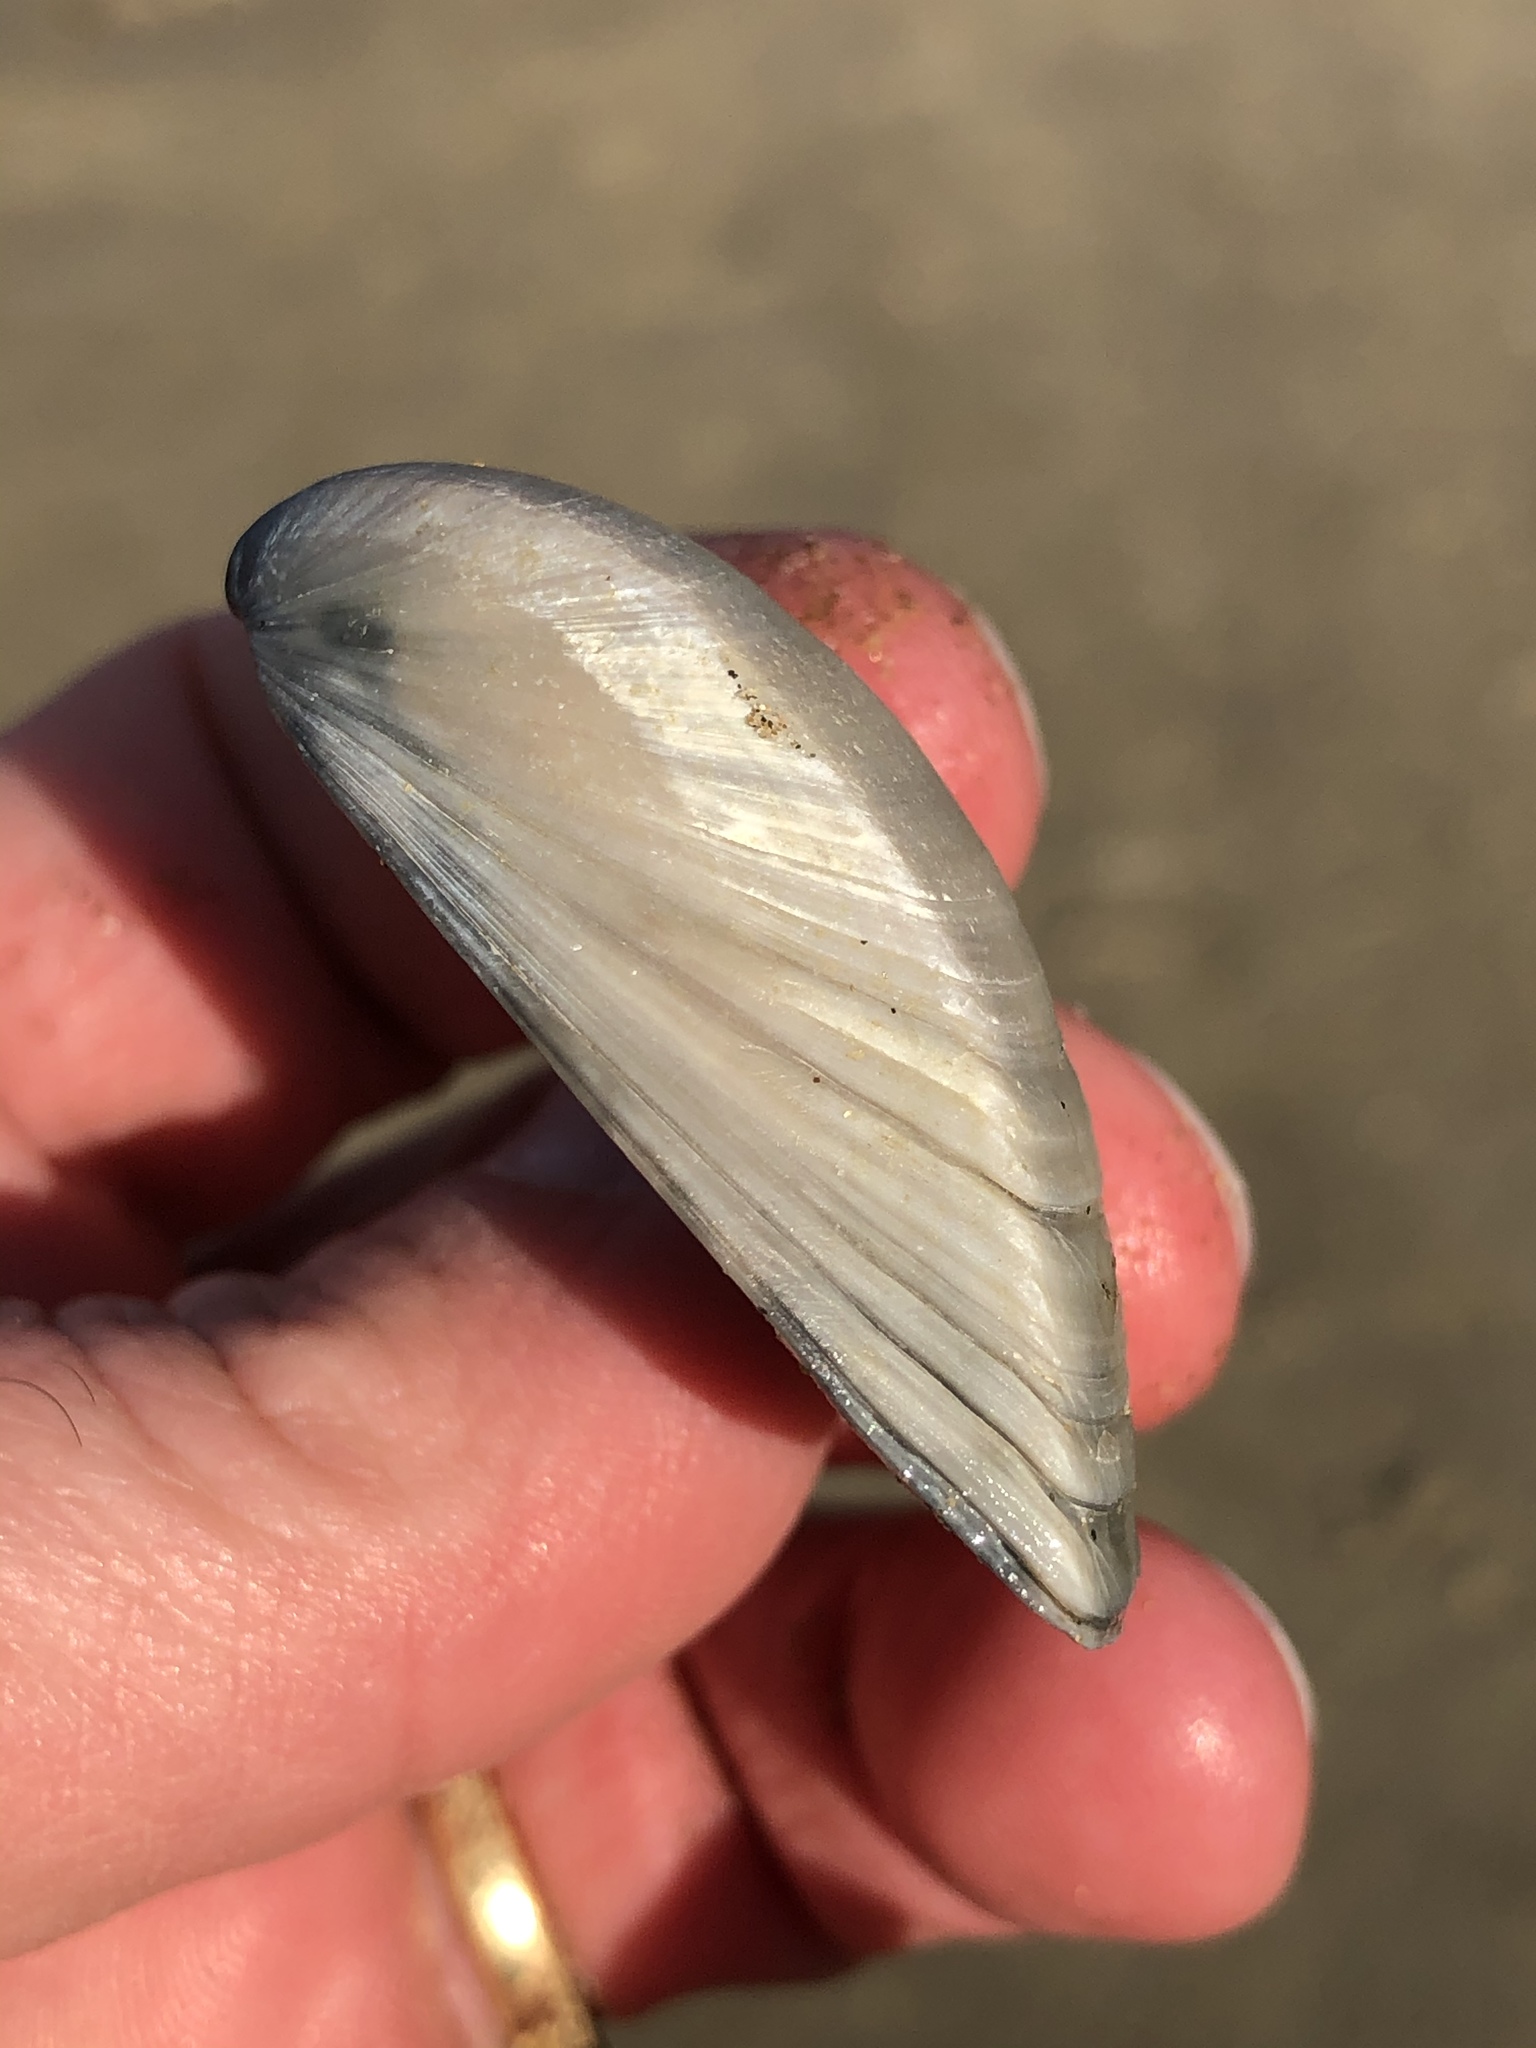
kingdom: Animalia
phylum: Mollusca
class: Bivalvia
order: Venerida
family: Mactridae
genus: Crassula
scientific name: Crassula aequilatera
